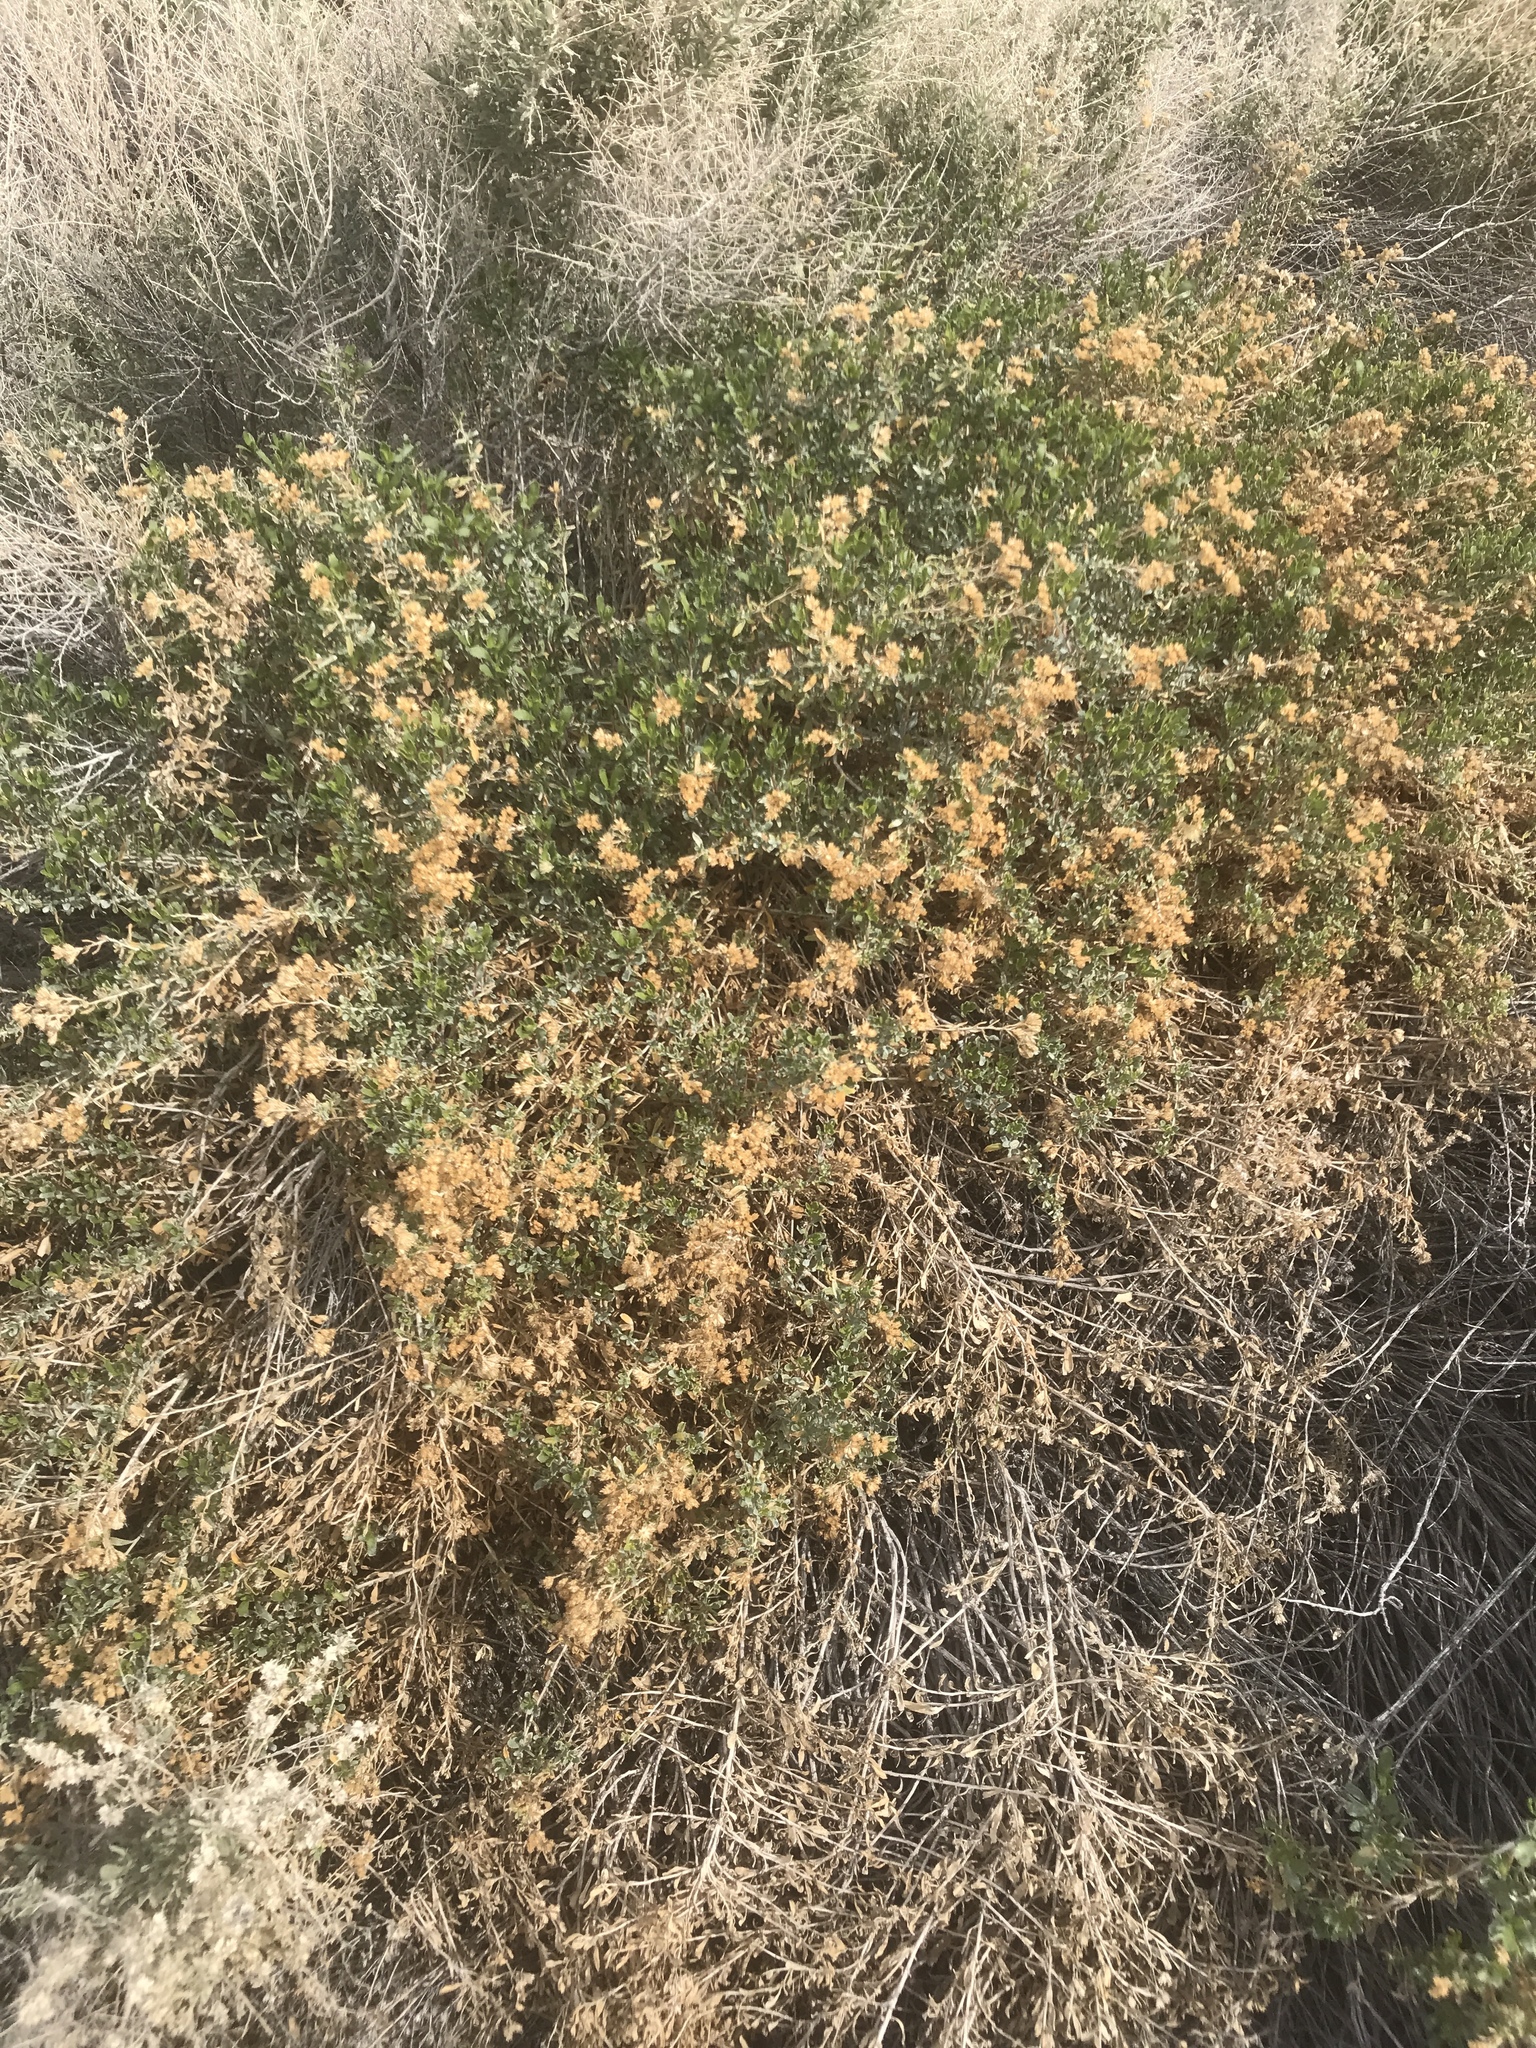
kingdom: Plantae
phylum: Tracheophyta
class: Magnoliopsida
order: Asterales
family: Asteraceae
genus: Isocoma
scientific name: Isocoma acradenia
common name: Alkali jimmyweed
